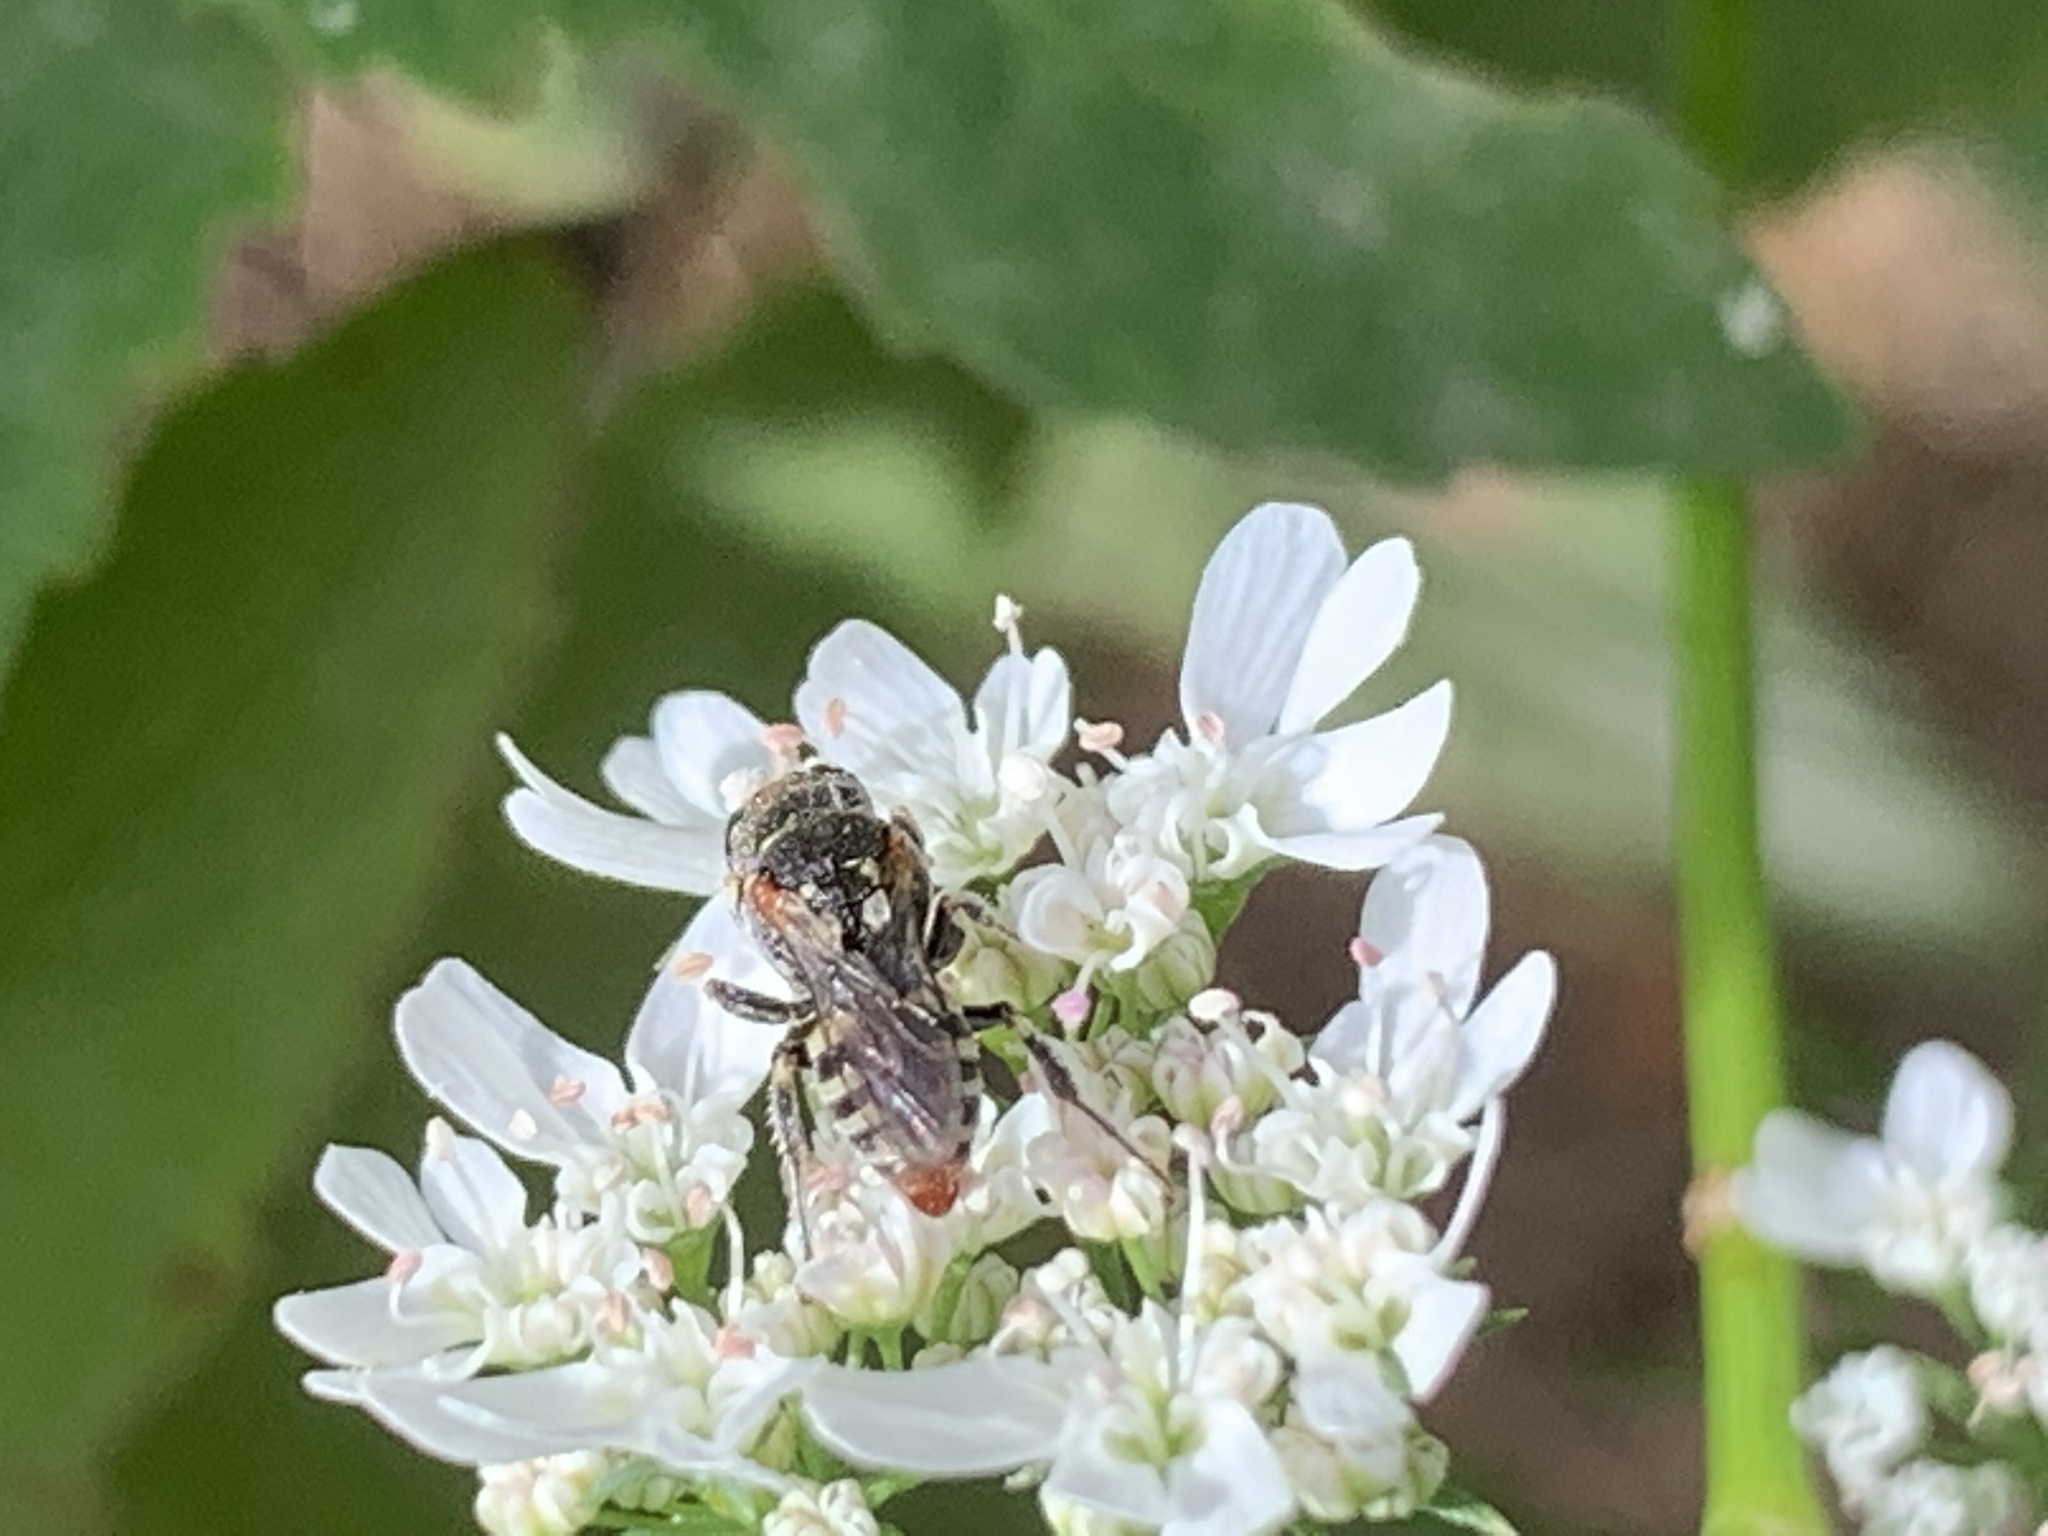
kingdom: Animalia
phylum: Arthropoda
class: Insecta
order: Hymenoptera
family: Crabronidae
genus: Oxybelus
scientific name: Oxybelus emarginatus
